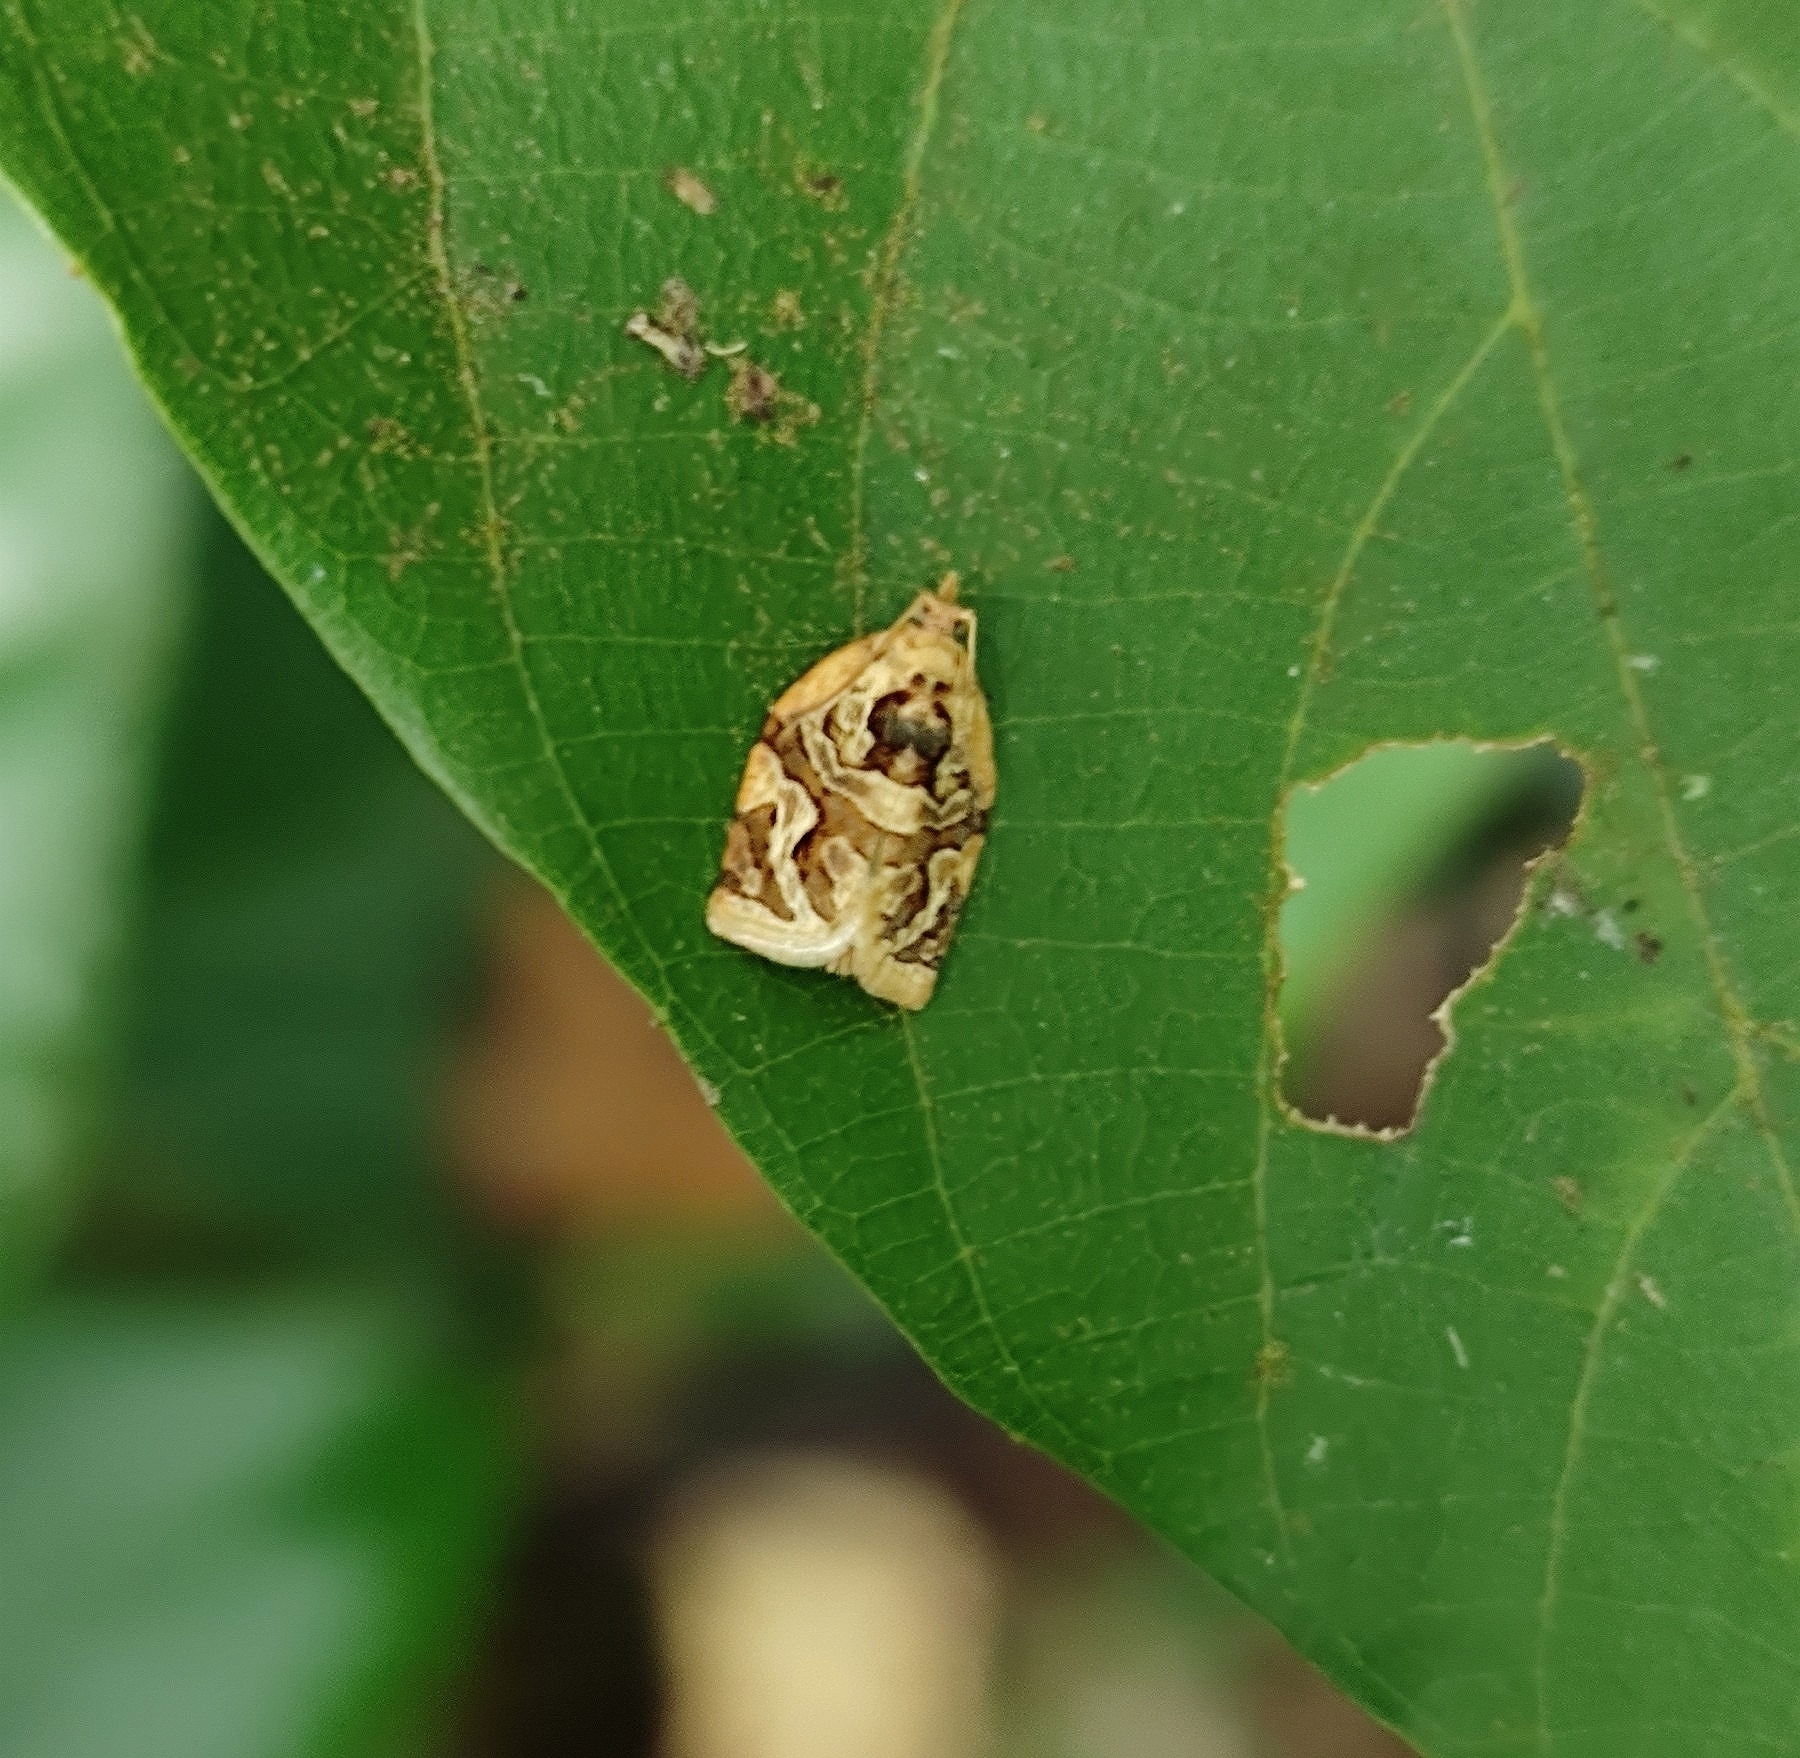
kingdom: Animalia
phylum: Arthropoda
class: Insecta
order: Lepidoptera
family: Tortricidae
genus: Adoxophyes
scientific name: Adoxophyes privatana
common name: Asian orchid tortrix
